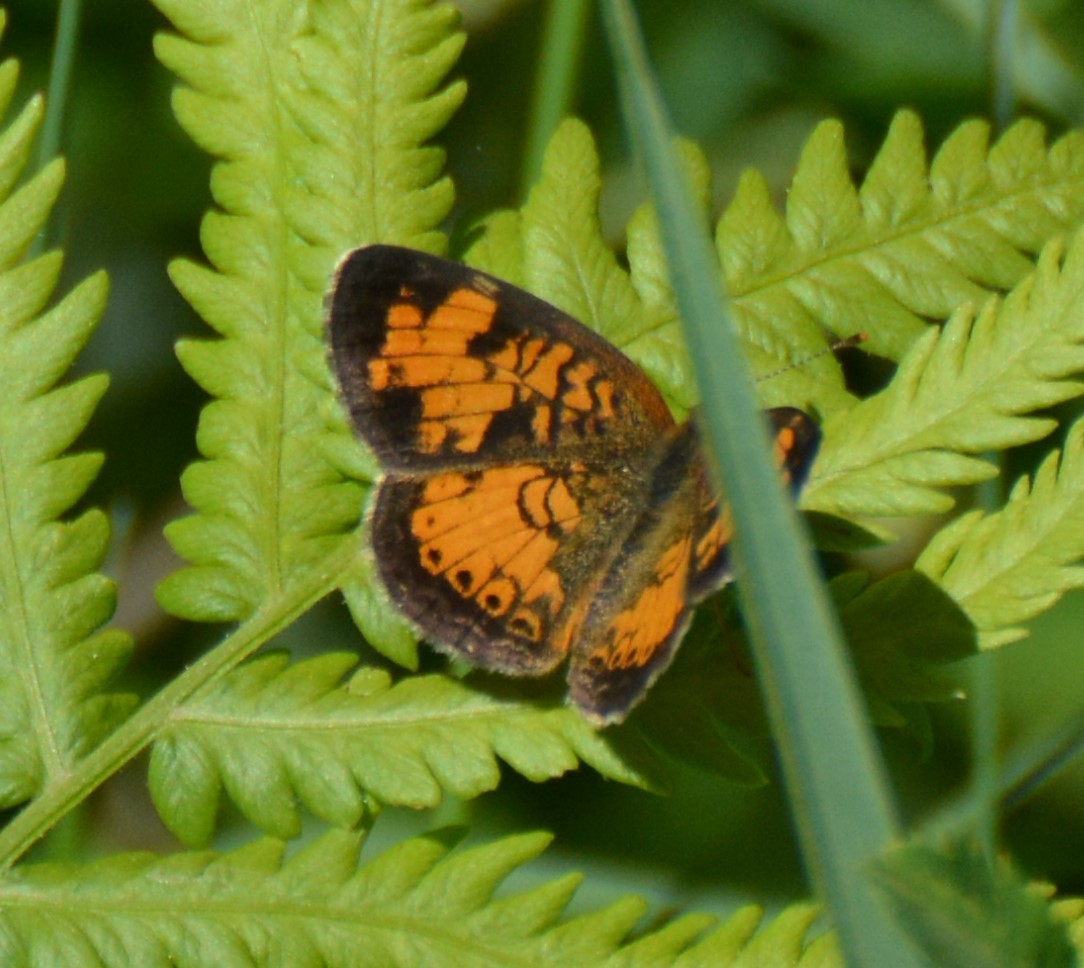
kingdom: Animalia
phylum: Arthropoda
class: Insecta
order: Lepidoptera
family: Nymphalidae
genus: Phyciodes
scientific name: Phyciodes tharos
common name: Pearl crescent
